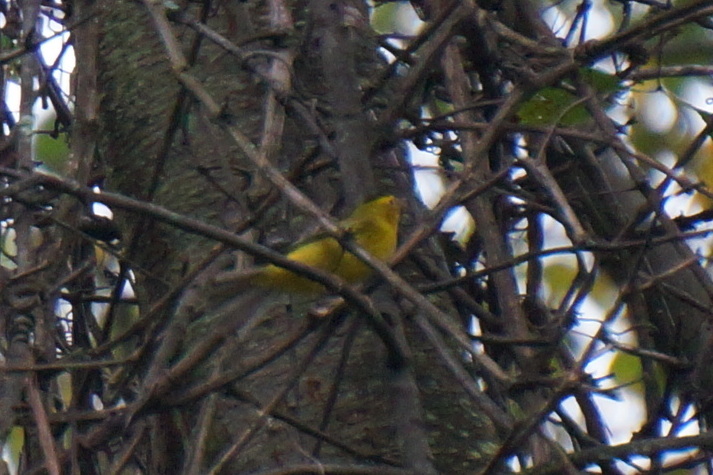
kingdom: Animalia
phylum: Chordata
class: Aves
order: Passeriformes
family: Parulidae
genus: Cardellina
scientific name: Cardellina pusilla
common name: Wilson's warbler
